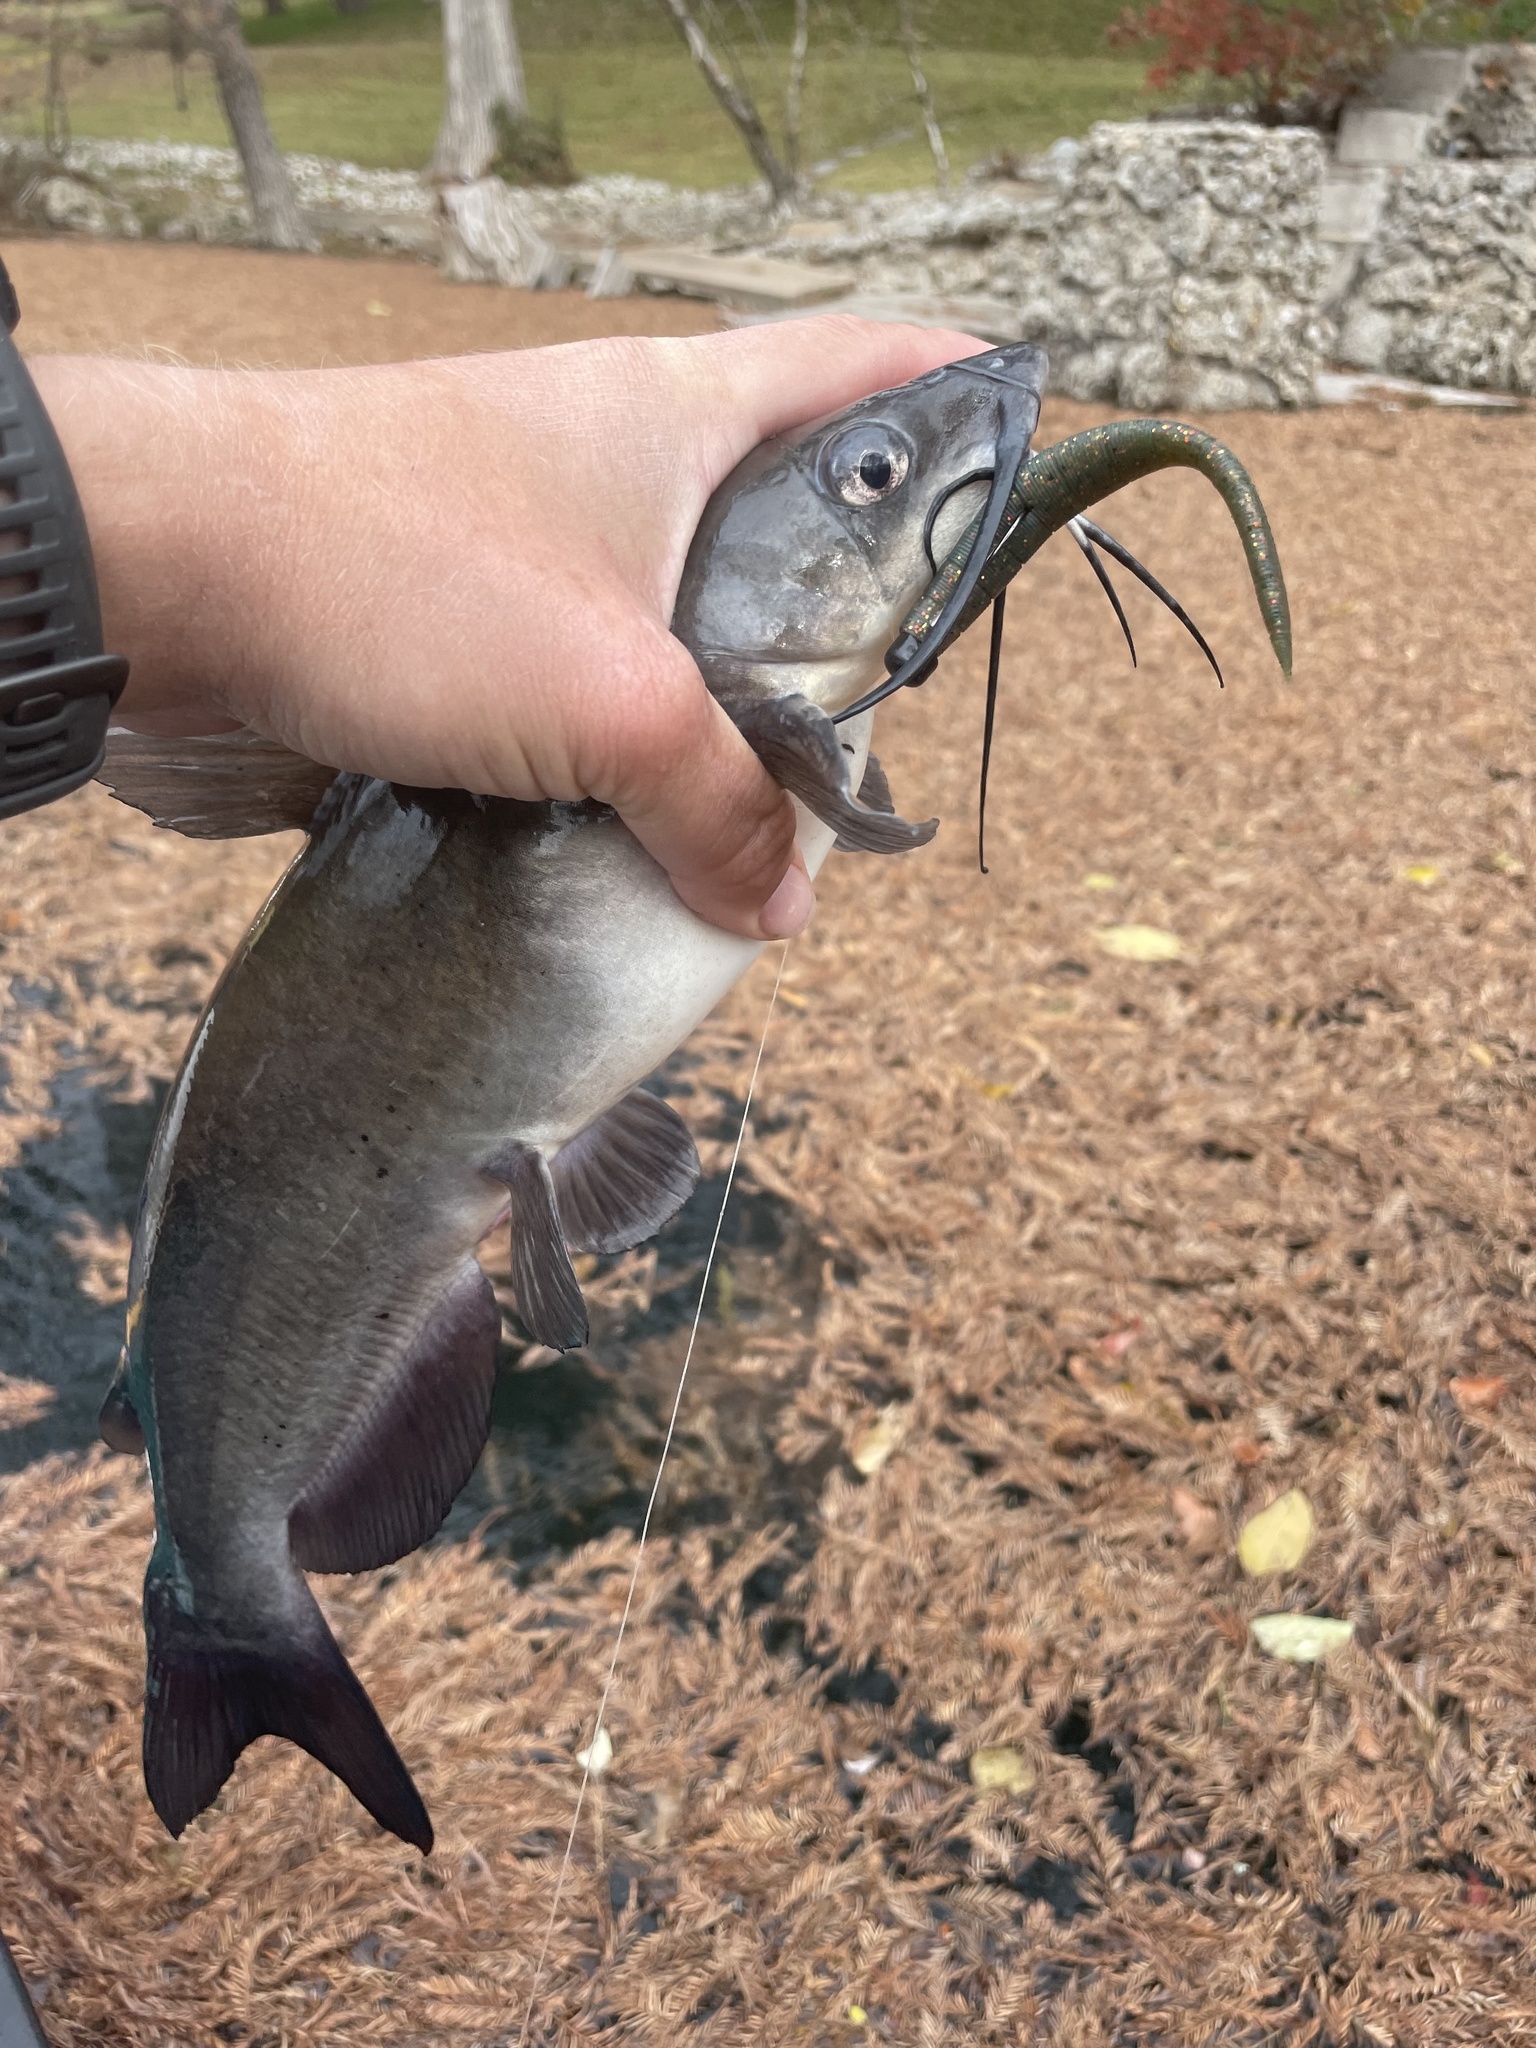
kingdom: Animalia
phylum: Chordata
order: Siluriformes
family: Ictaluridae
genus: Ictalurus
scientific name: Ictalurus punctatus
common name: Channel catfish
